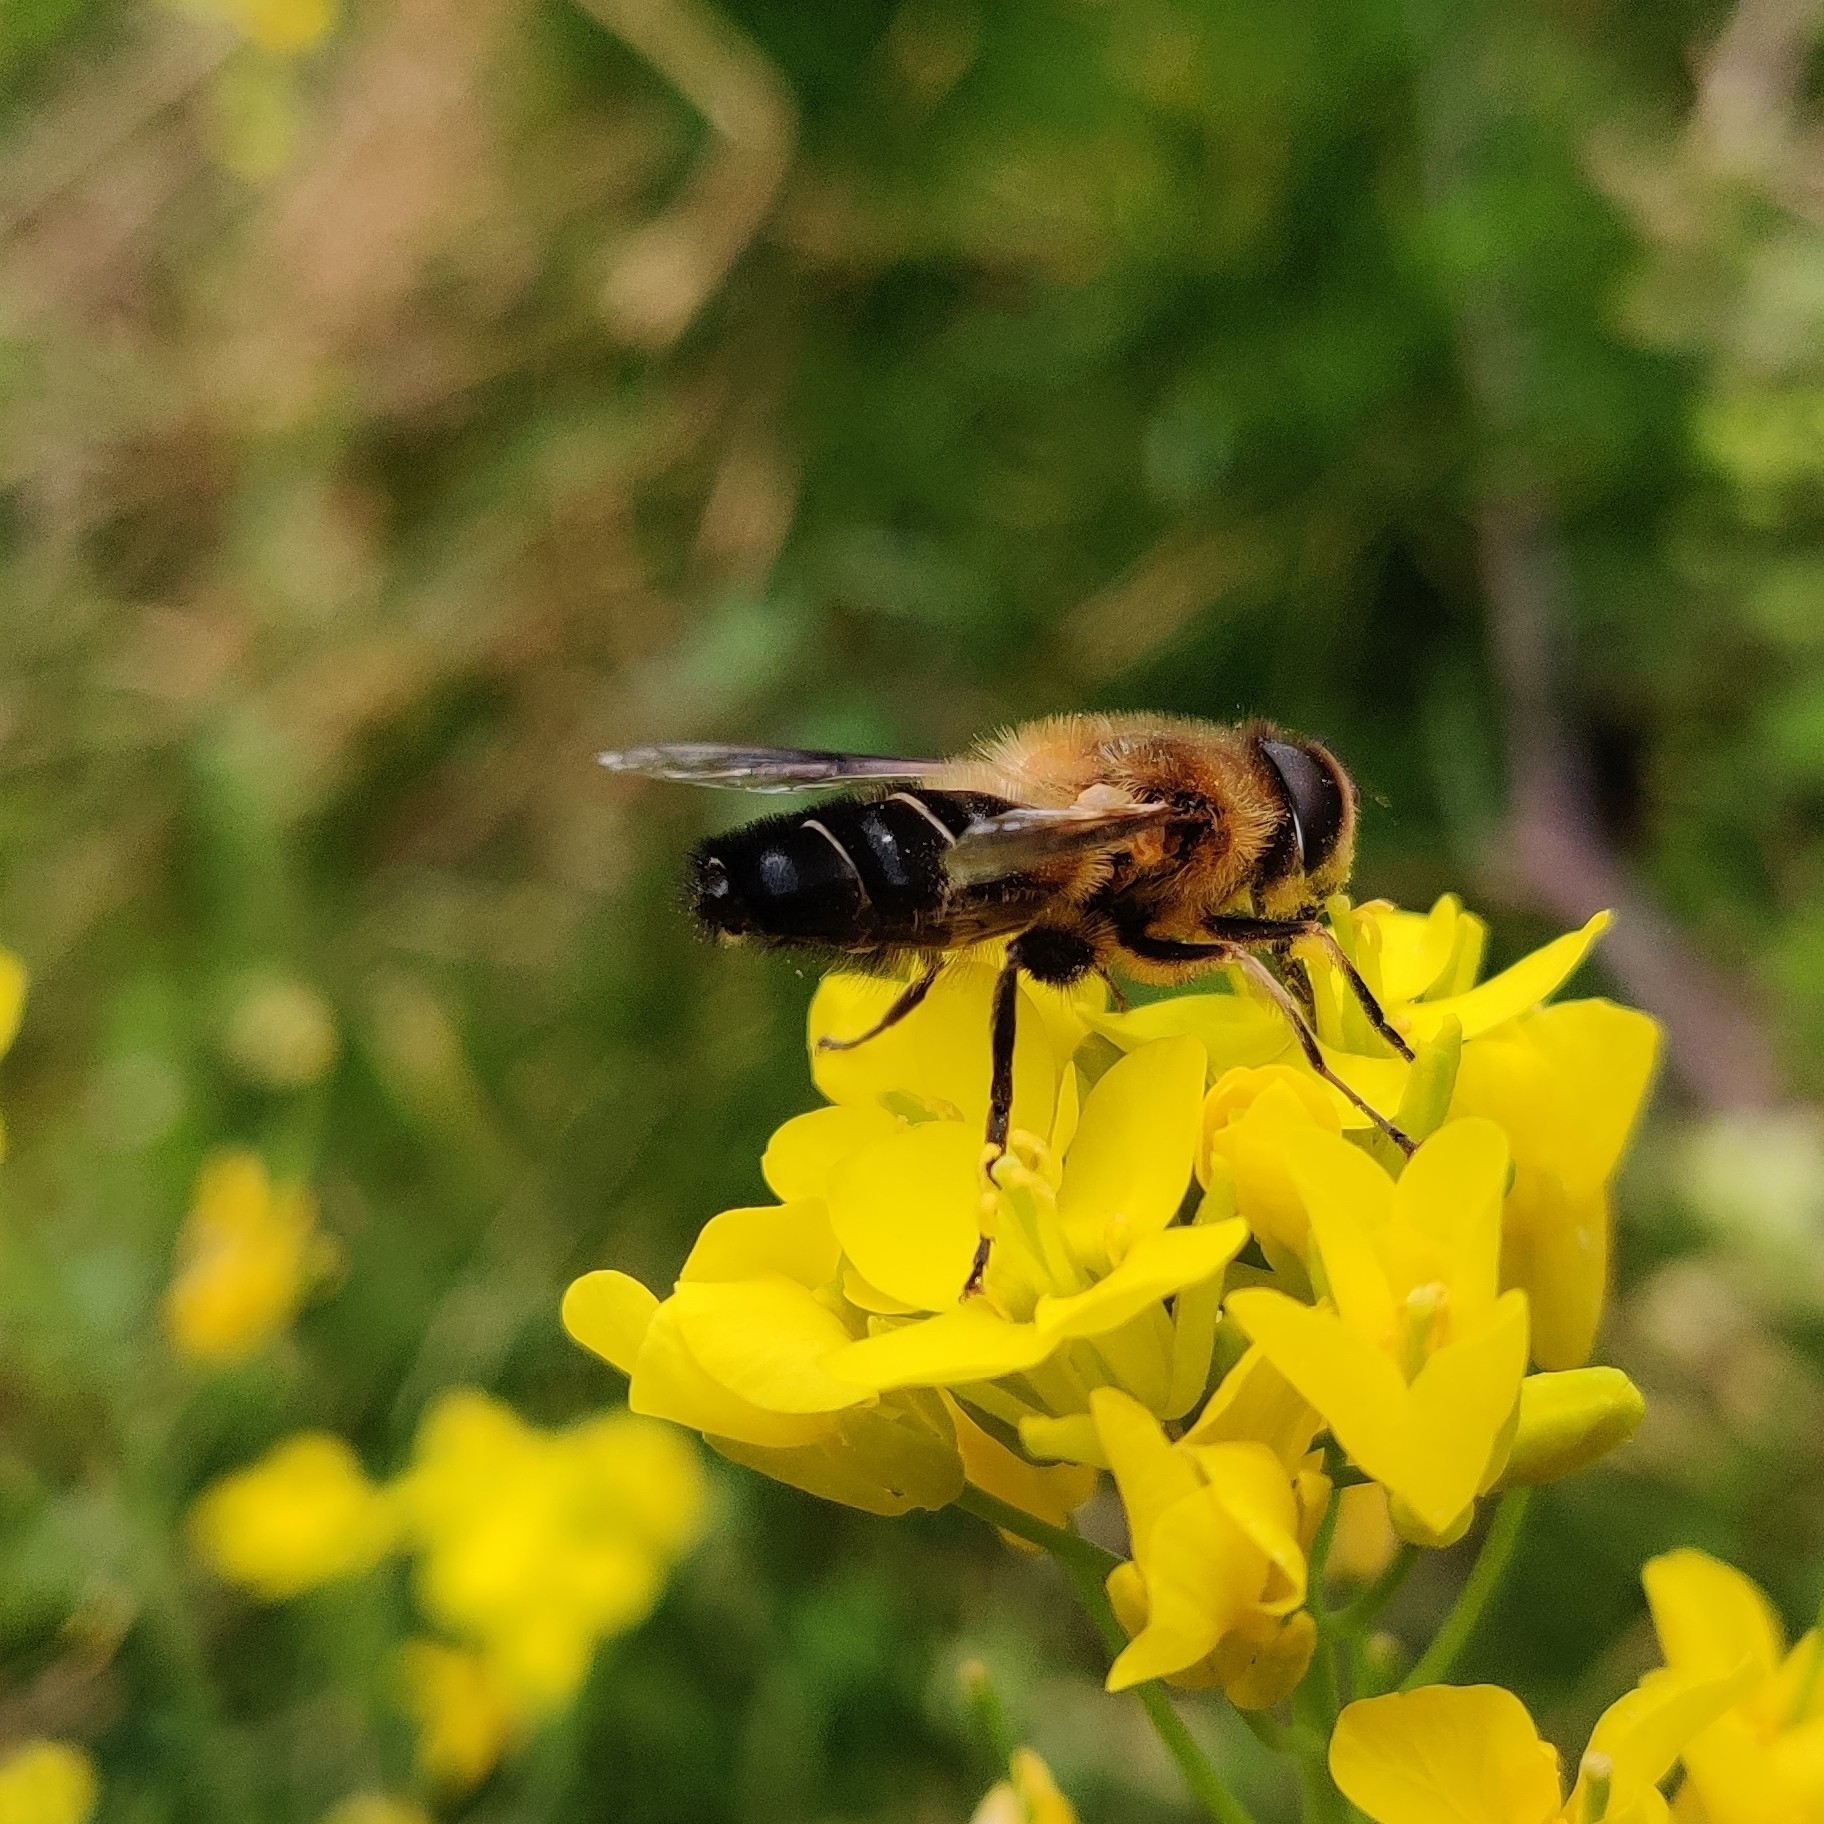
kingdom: Animalia
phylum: Arthropoda
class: Insecta
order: Diptera
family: Syrphidae
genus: Eristalis
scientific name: Eristalis himalayensis
